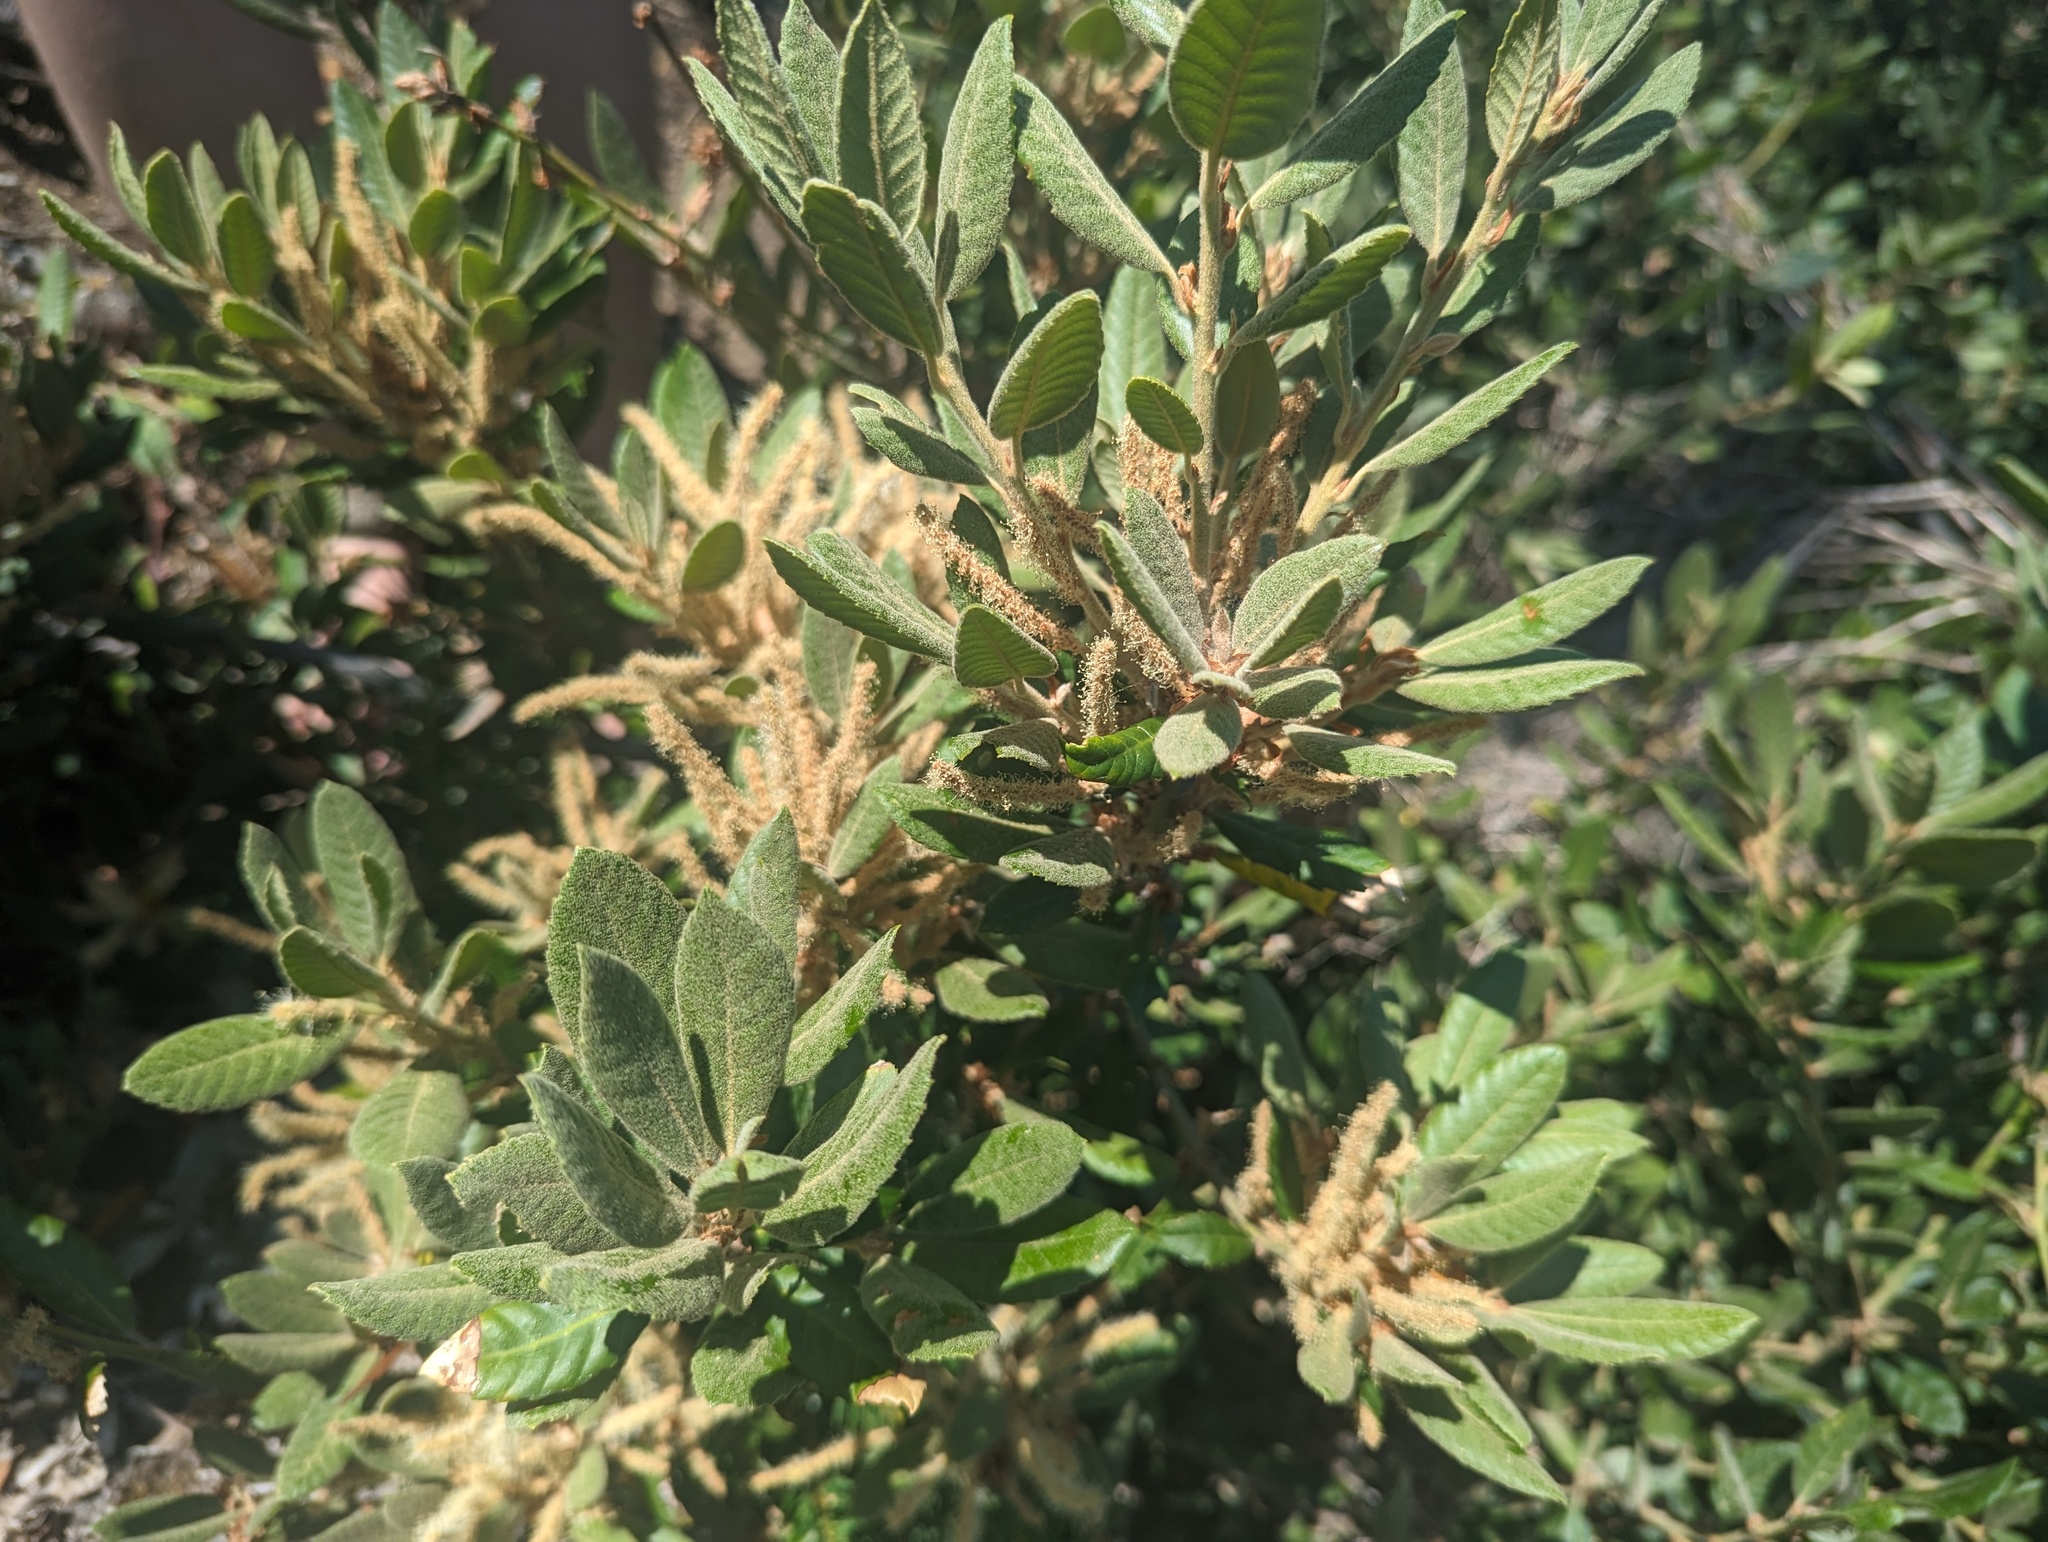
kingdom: Plantae
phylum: Tracheophyta
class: Magnoliopsida
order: Fagales
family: Fagaceae
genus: Notholithocarpus
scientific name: Notholithocarpus densiflorus
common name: Tan bark oak
